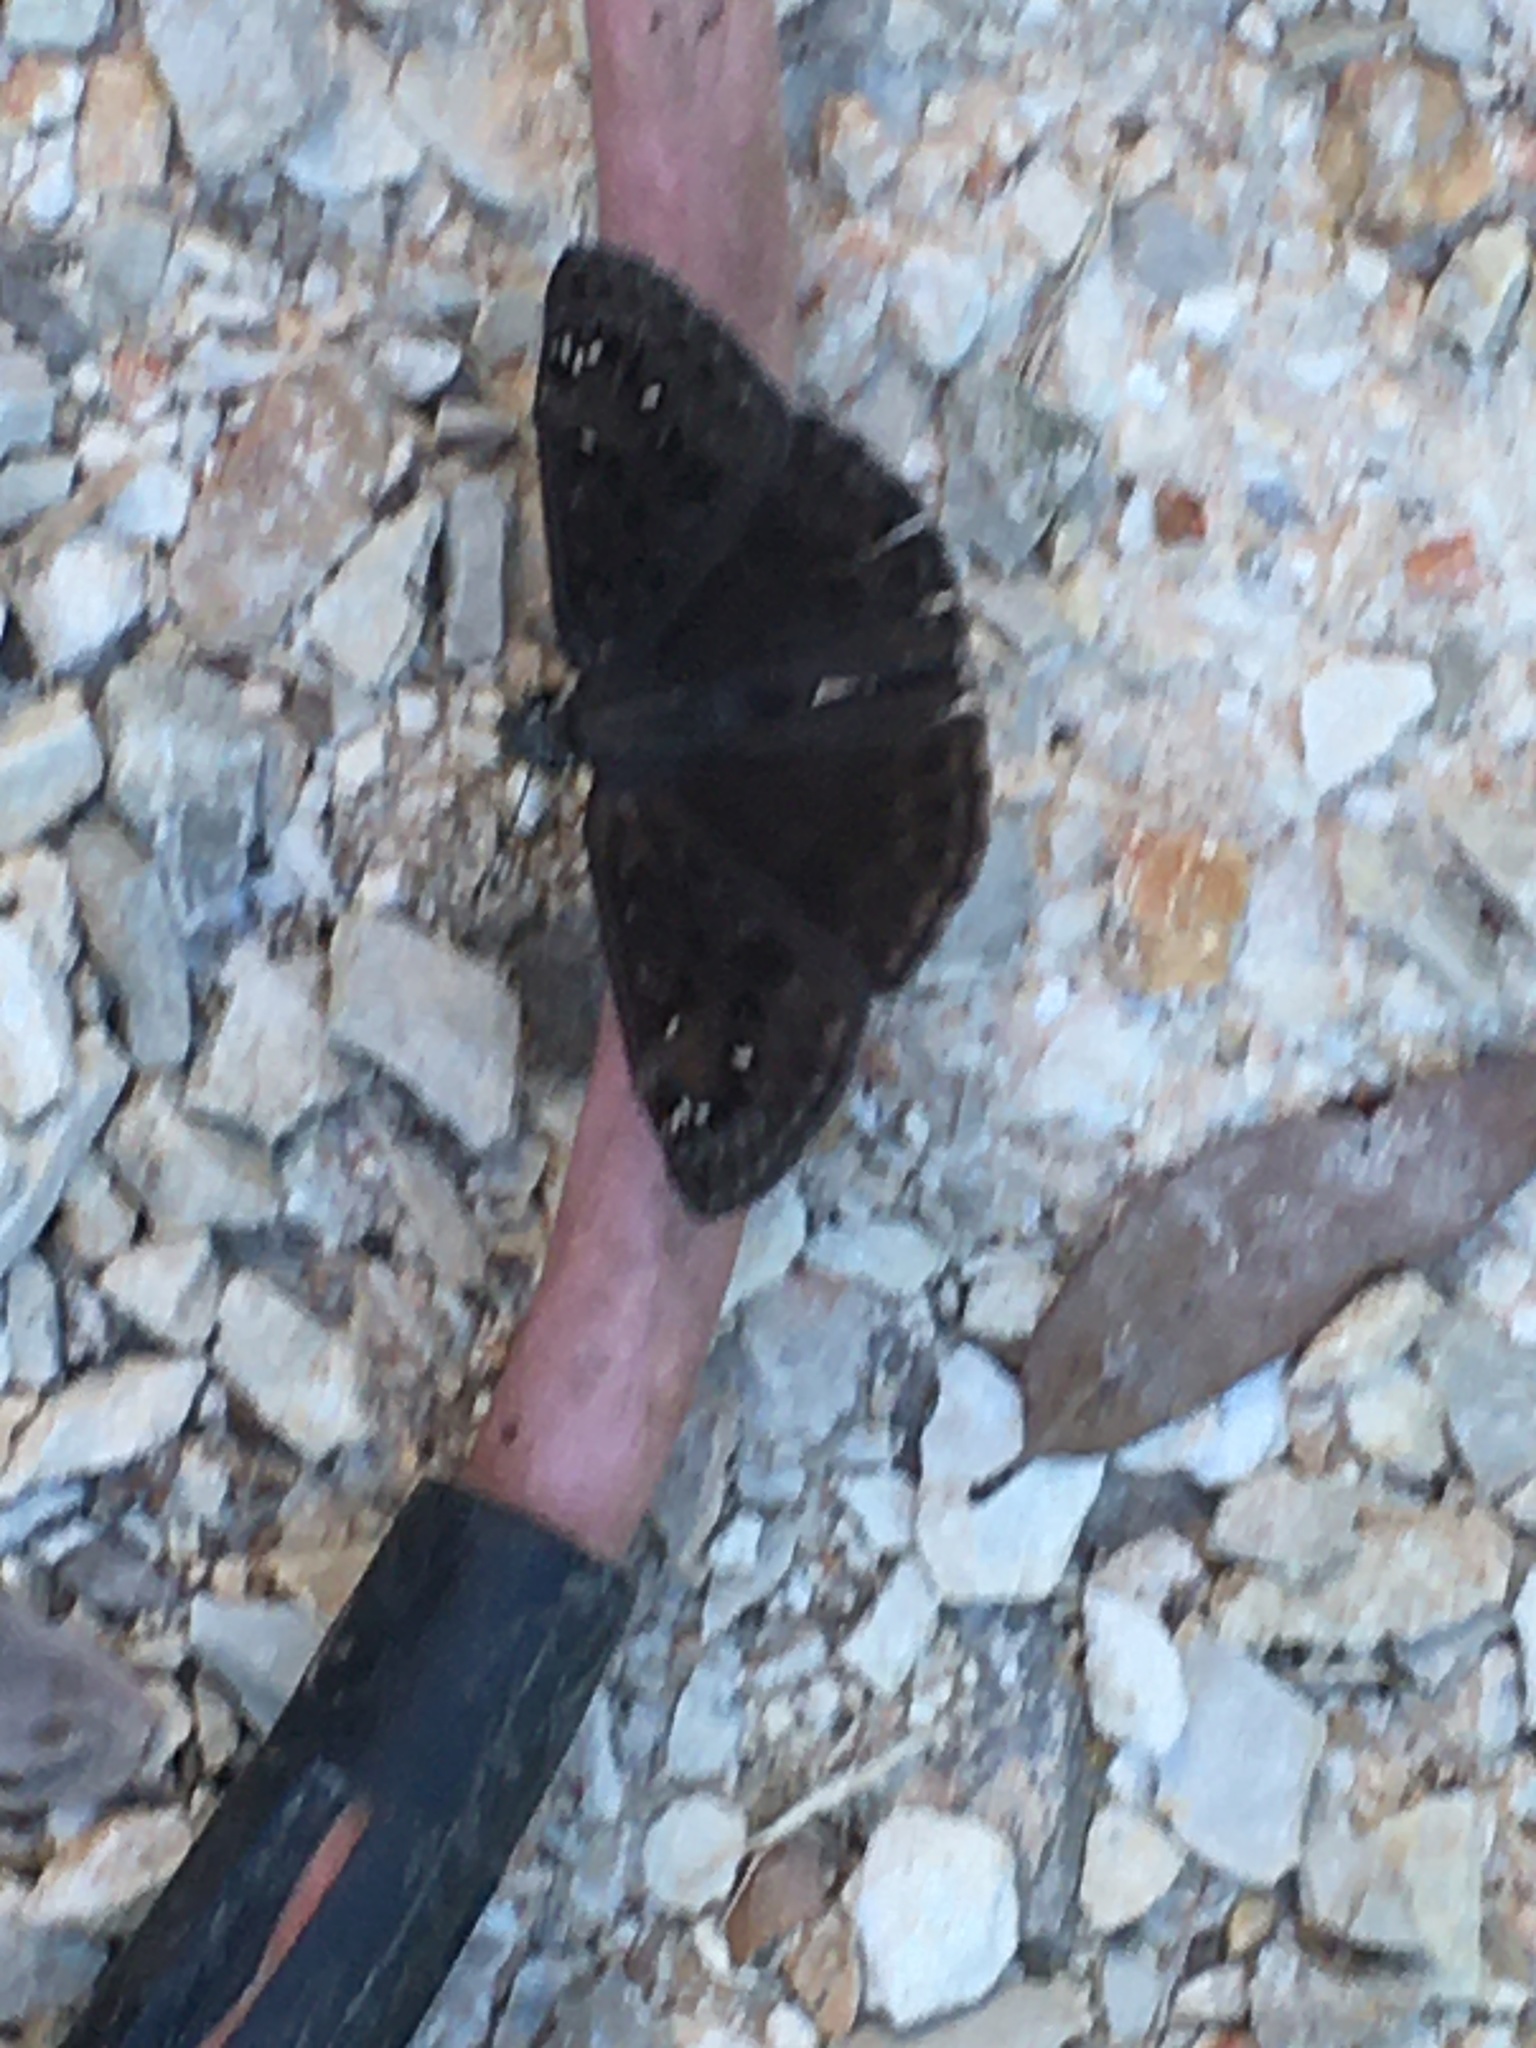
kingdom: Animalia
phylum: Arthropoda
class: Insecta
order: Lepidoptera
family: Hesperiidae
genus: Erynnis
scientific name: Erynnis horatius
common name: Horace's duskywing
